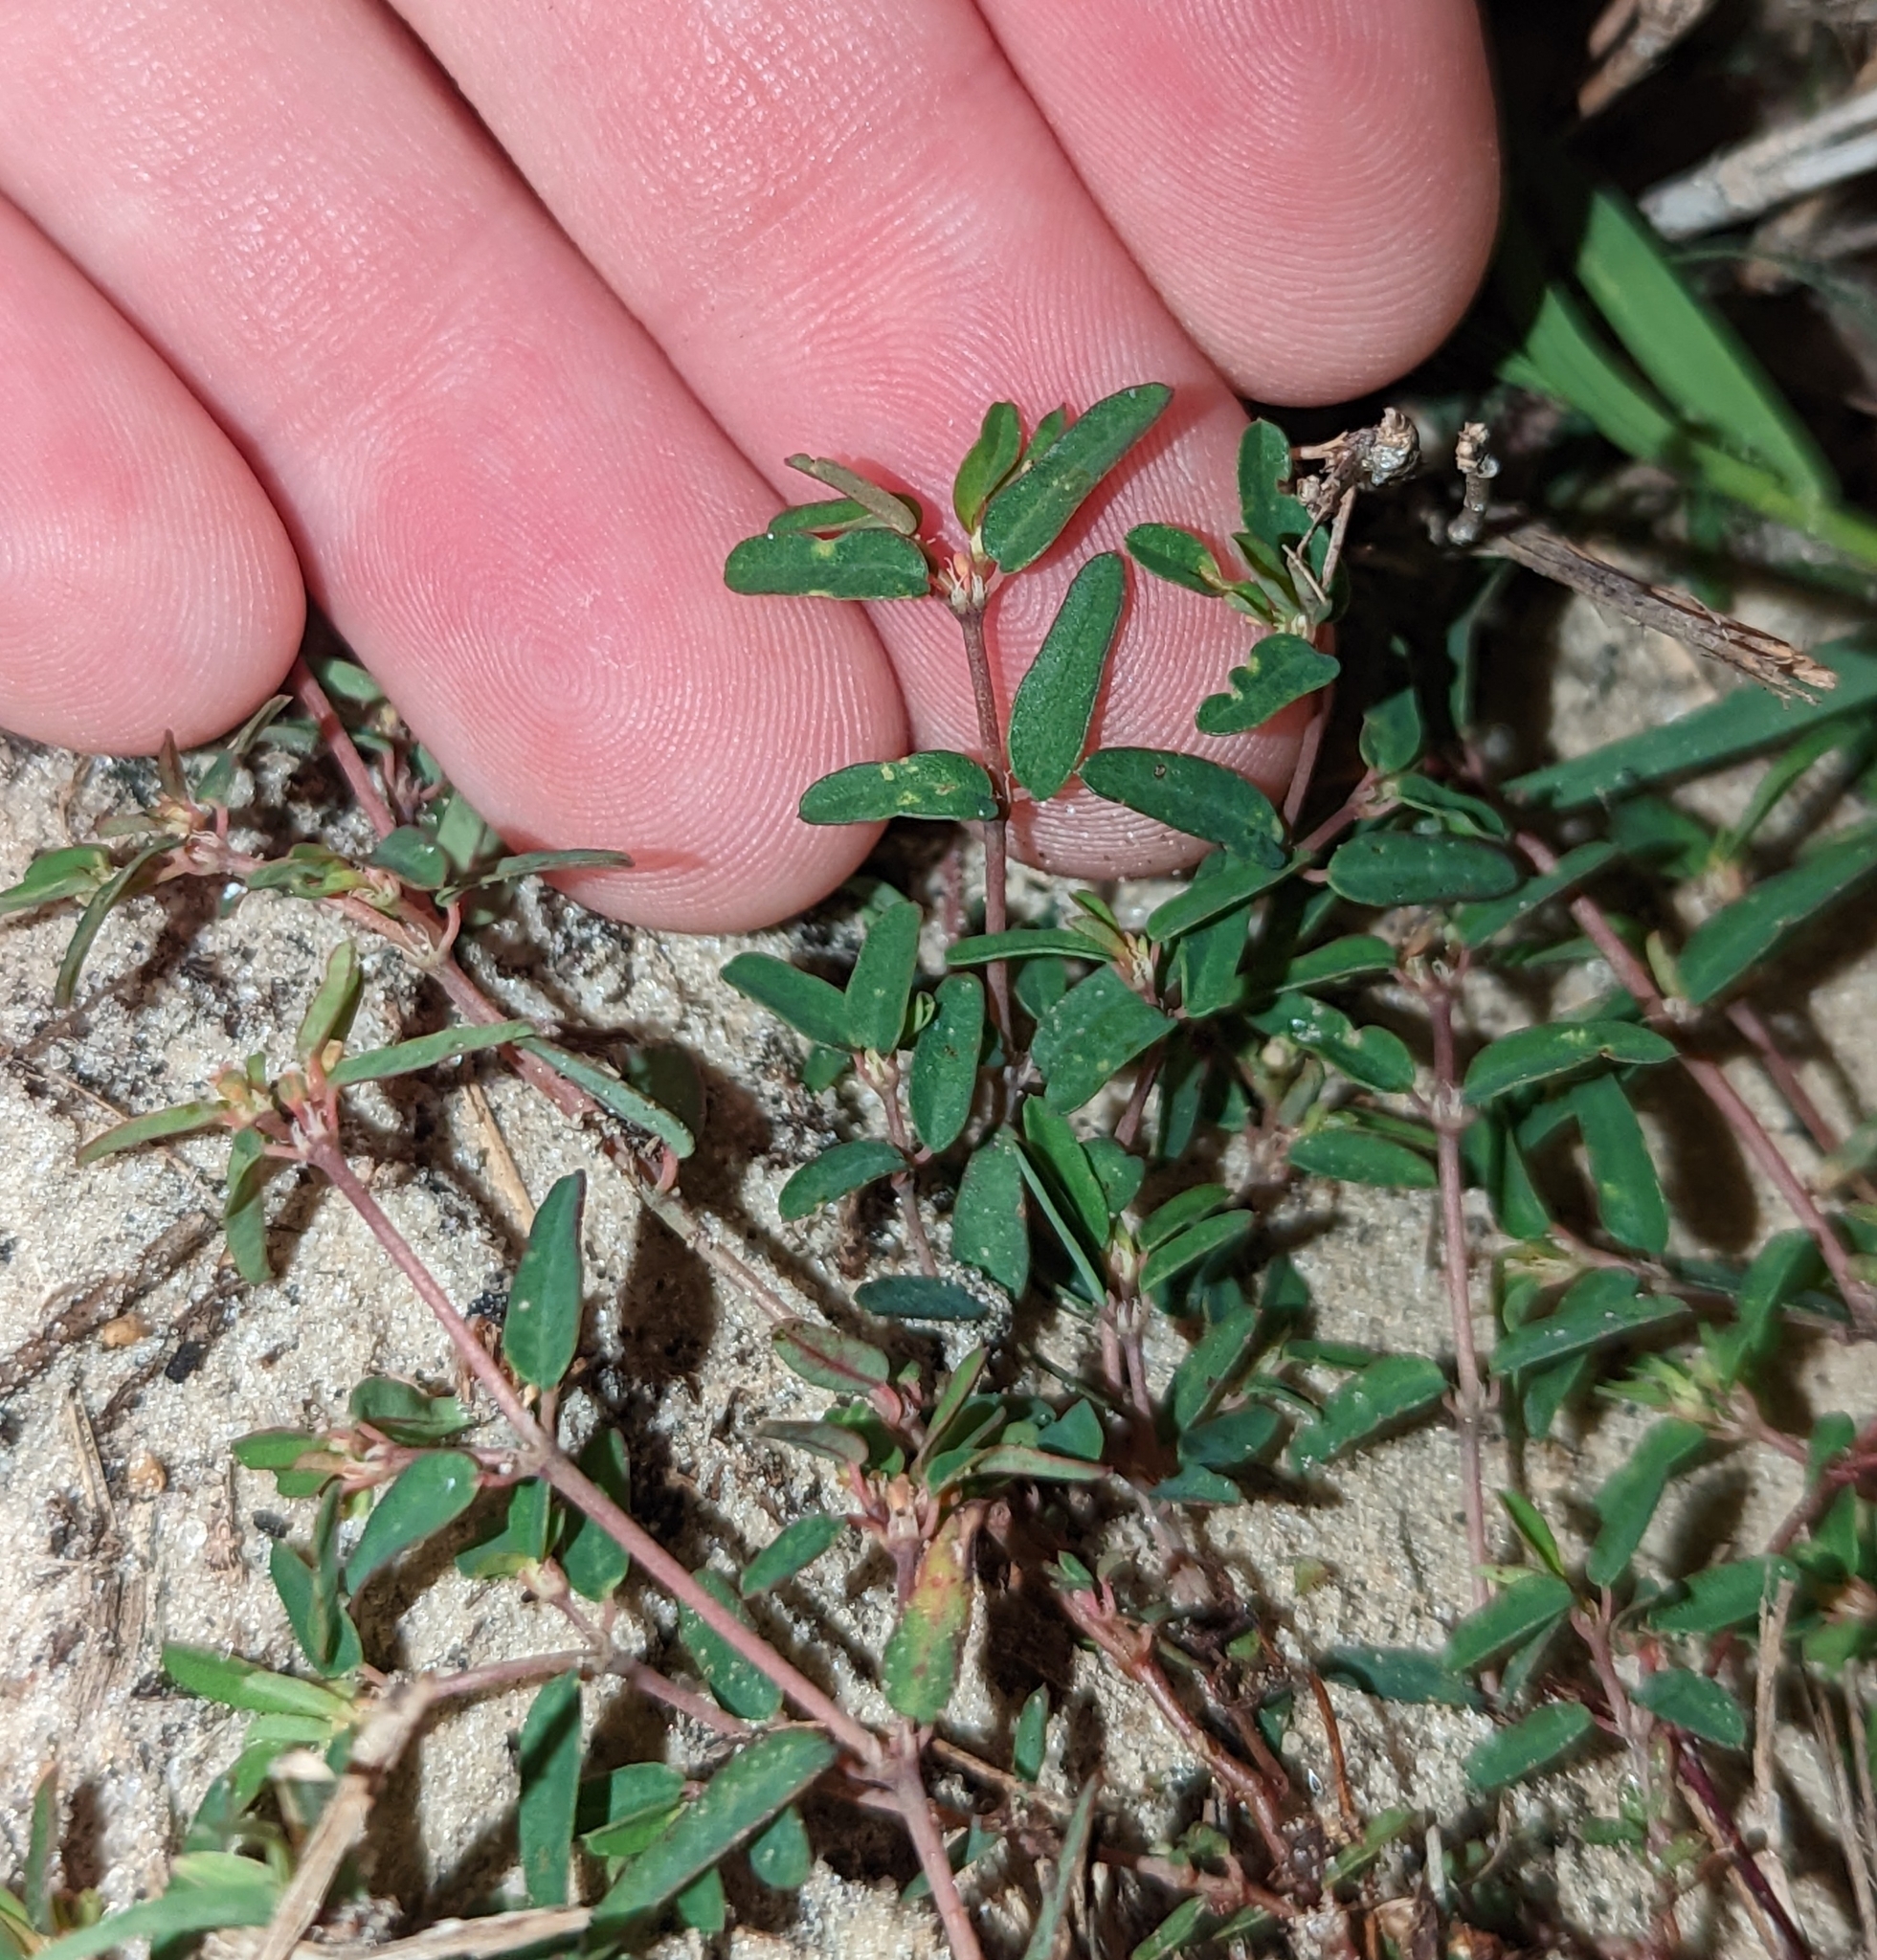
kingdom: Plantae
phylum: Tracheophyta
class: Magnoliopsida
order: Malpighiales
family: Euphorbiaceae
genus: Euphorbia
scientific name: Euphorbia cumulicola
